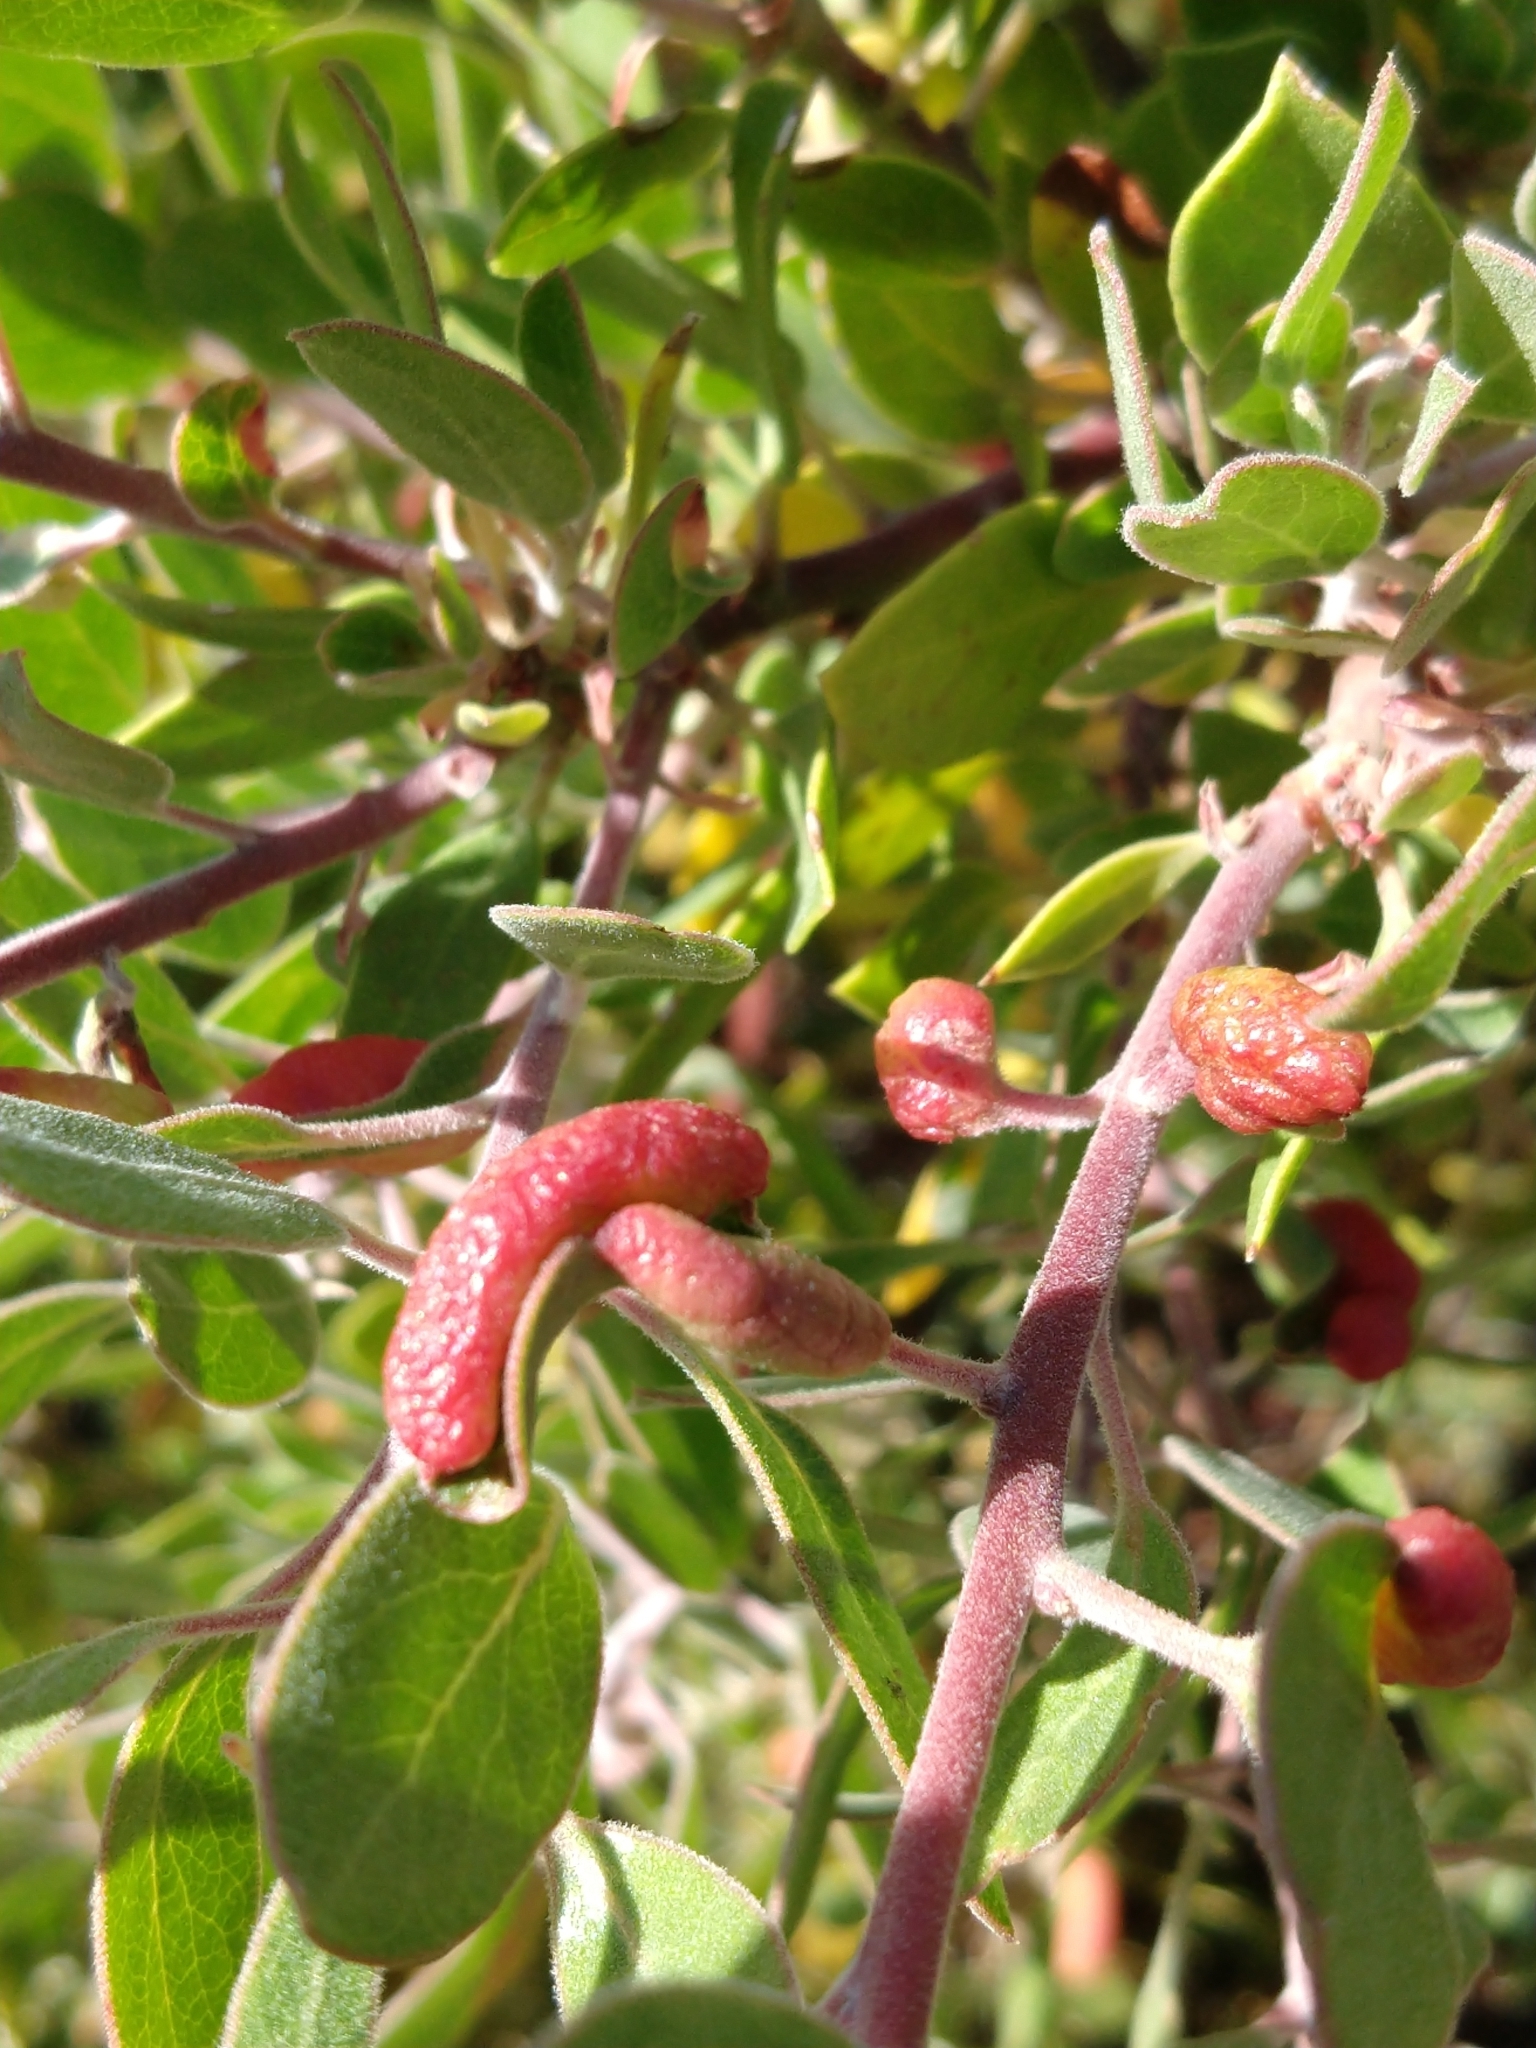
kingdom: Plantae
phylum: Tracheophyta
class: Magnoliopsida
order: Ericales
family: Ericaceae
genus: Arctostaphylos
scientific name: Arctostaphylos pungens
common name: Mexican manzanita
